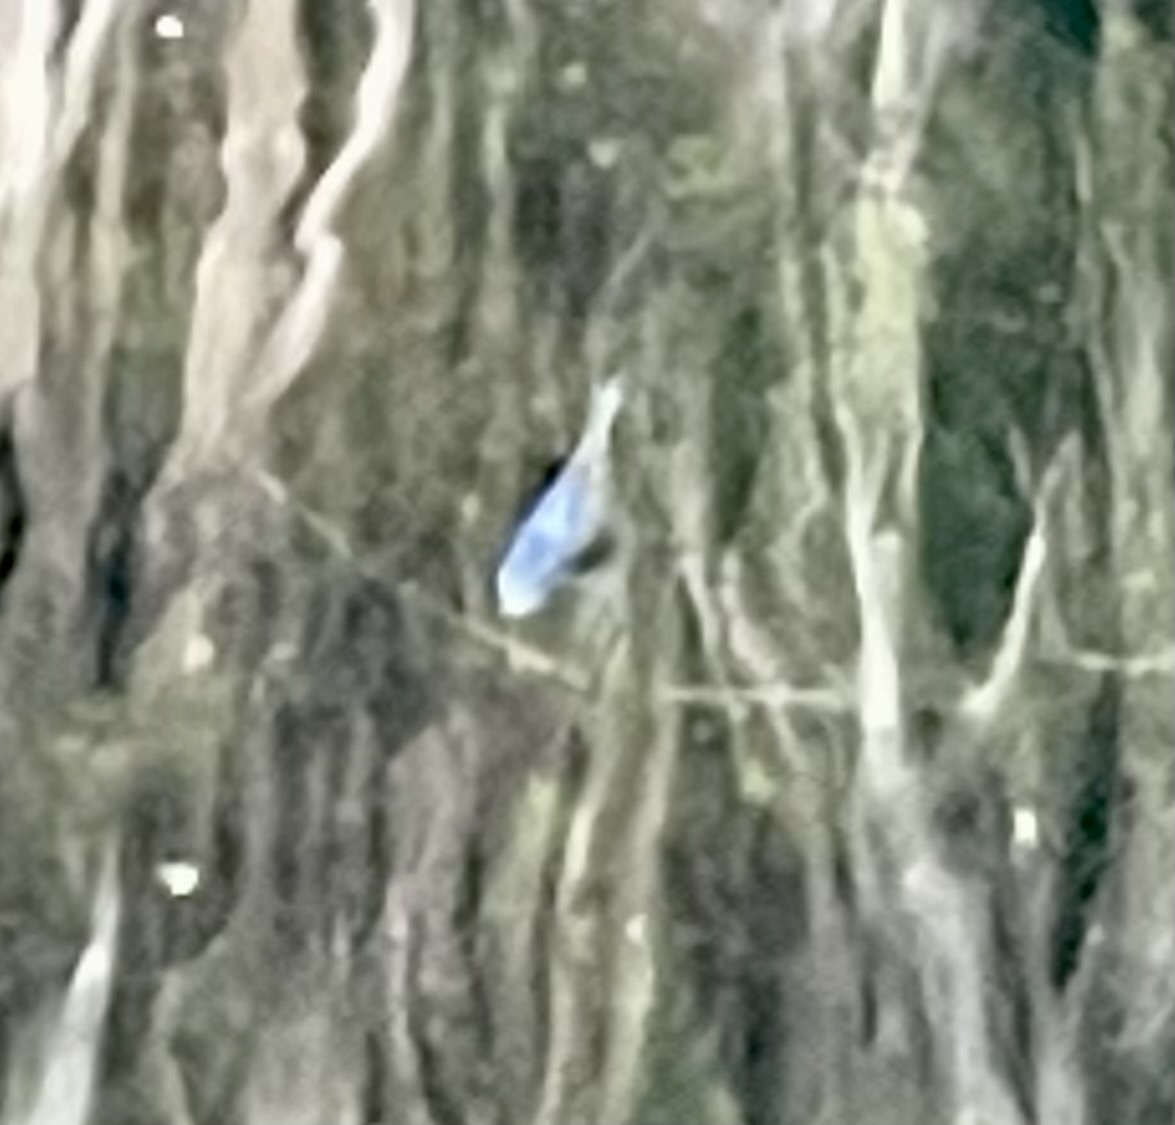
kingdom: Animalia
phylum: Chordata
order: Cyprinodontiformes
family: Cyprinodontidae
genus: Cyprinodon
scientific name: Cyprinodon macularius
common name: Desert pupfish
